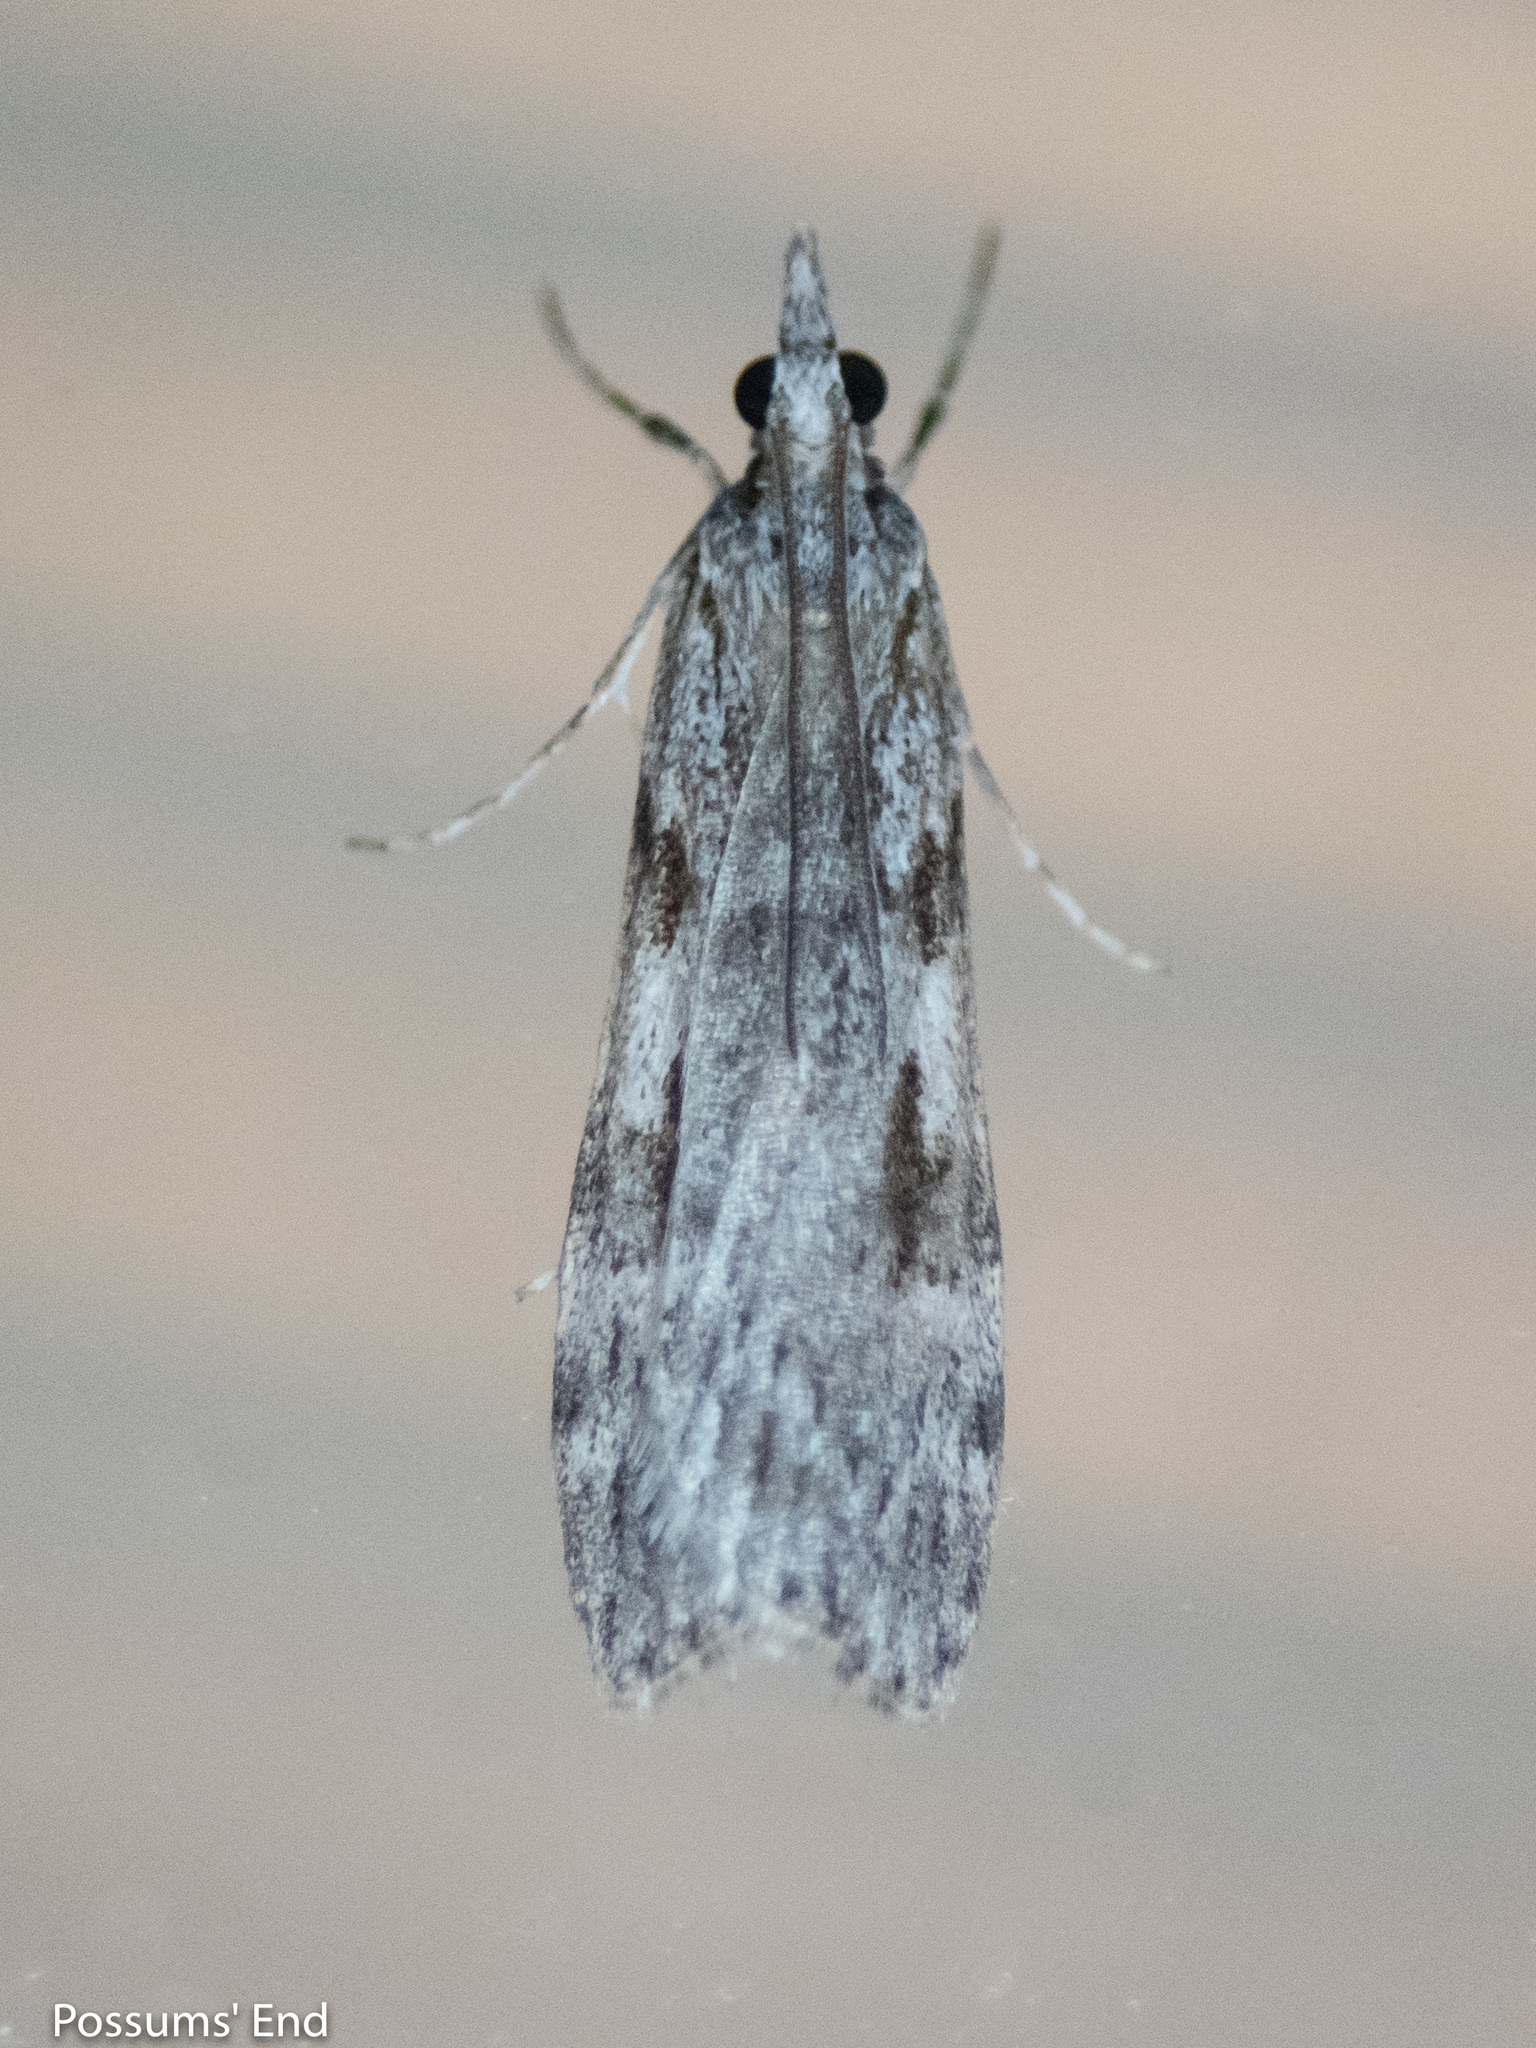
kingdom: Animalia
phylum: Arthropoda
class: Insecta
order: Lepidoptera
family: Crambidae
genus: Scoparia
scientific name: Scoparia halopis
